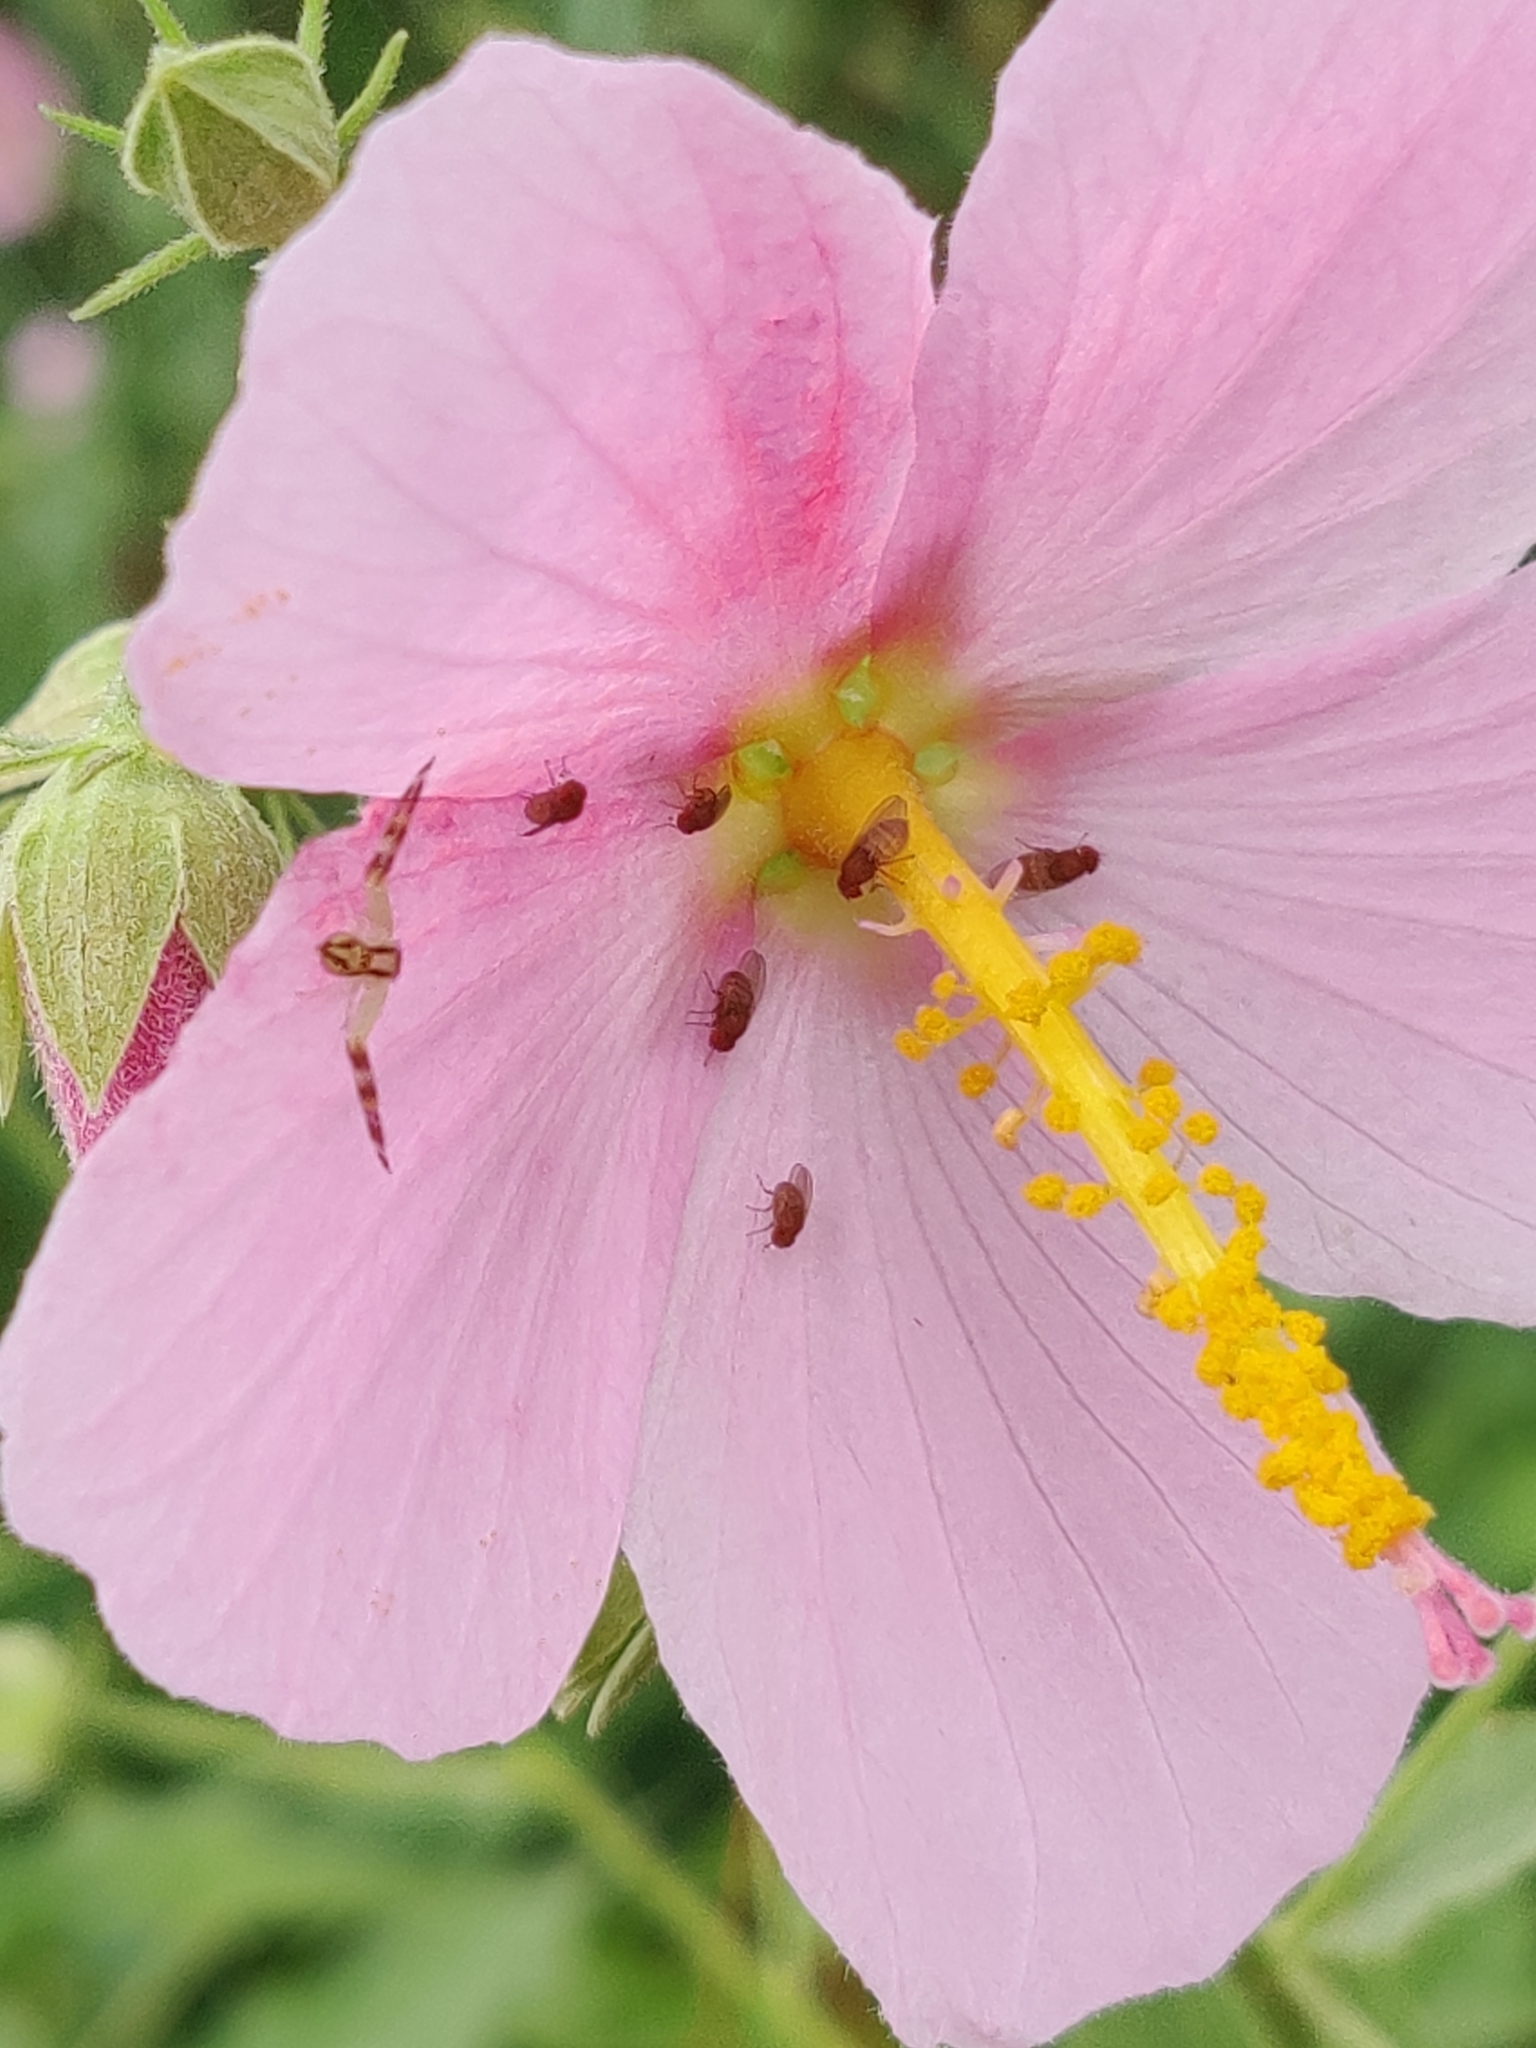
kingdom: Plantae
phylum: Tracheophyta
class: Magnoliopsida
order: Malvales
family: Malvaceae
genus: Kosteletzkya
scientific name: Kosteletzkya pentacarpos
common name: Virginia saltmarsh mallow
